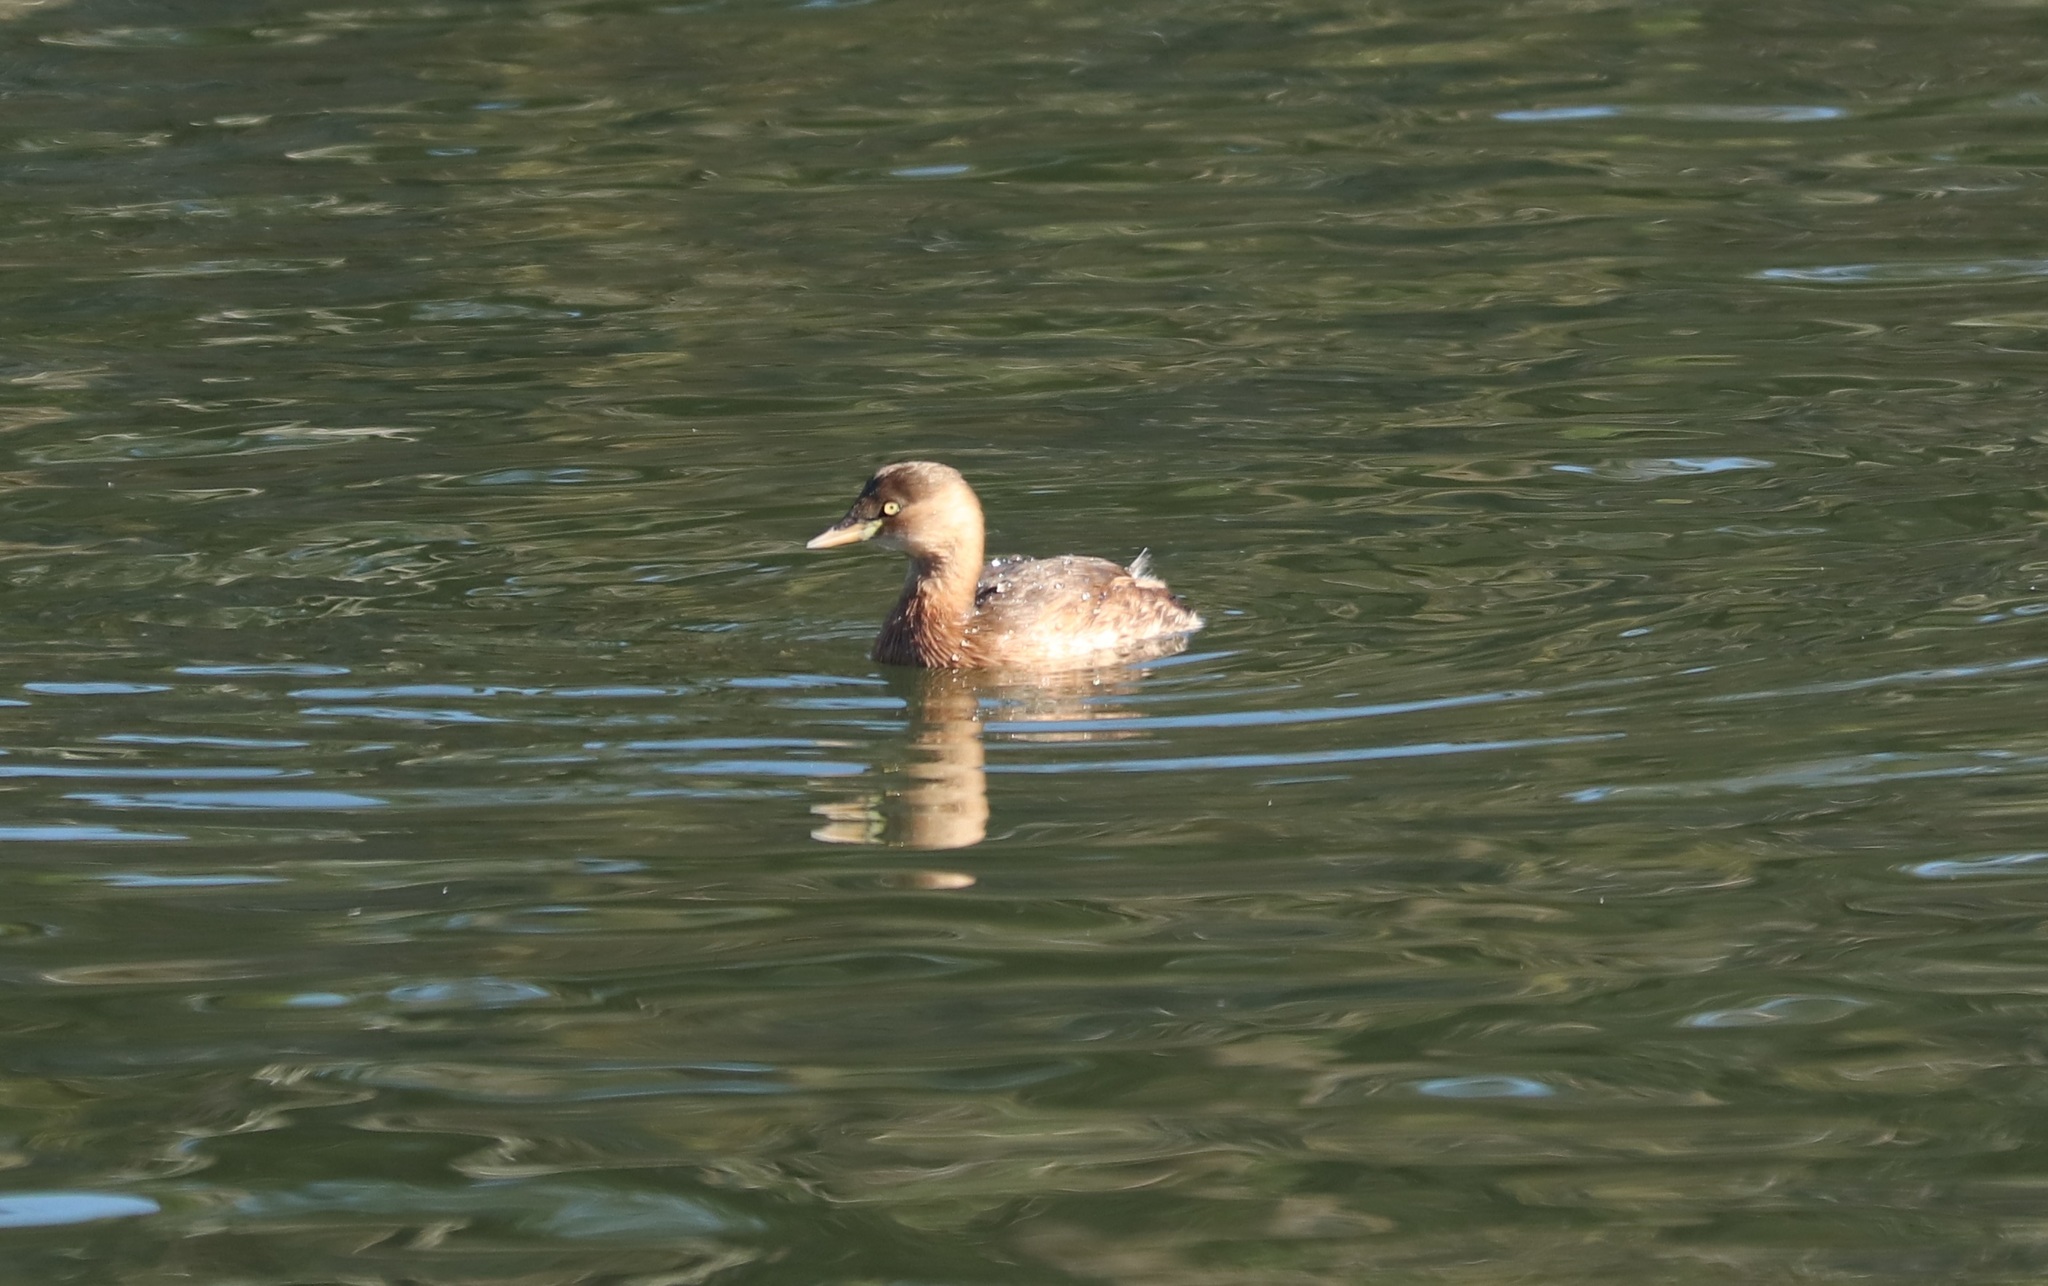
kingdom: Animalia
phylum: Chordata
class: Aves
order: Podicipediformes
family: Podicipedidae
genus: Tachybaptus
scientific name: Tachybaptus ruficollis
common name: Little grebe
